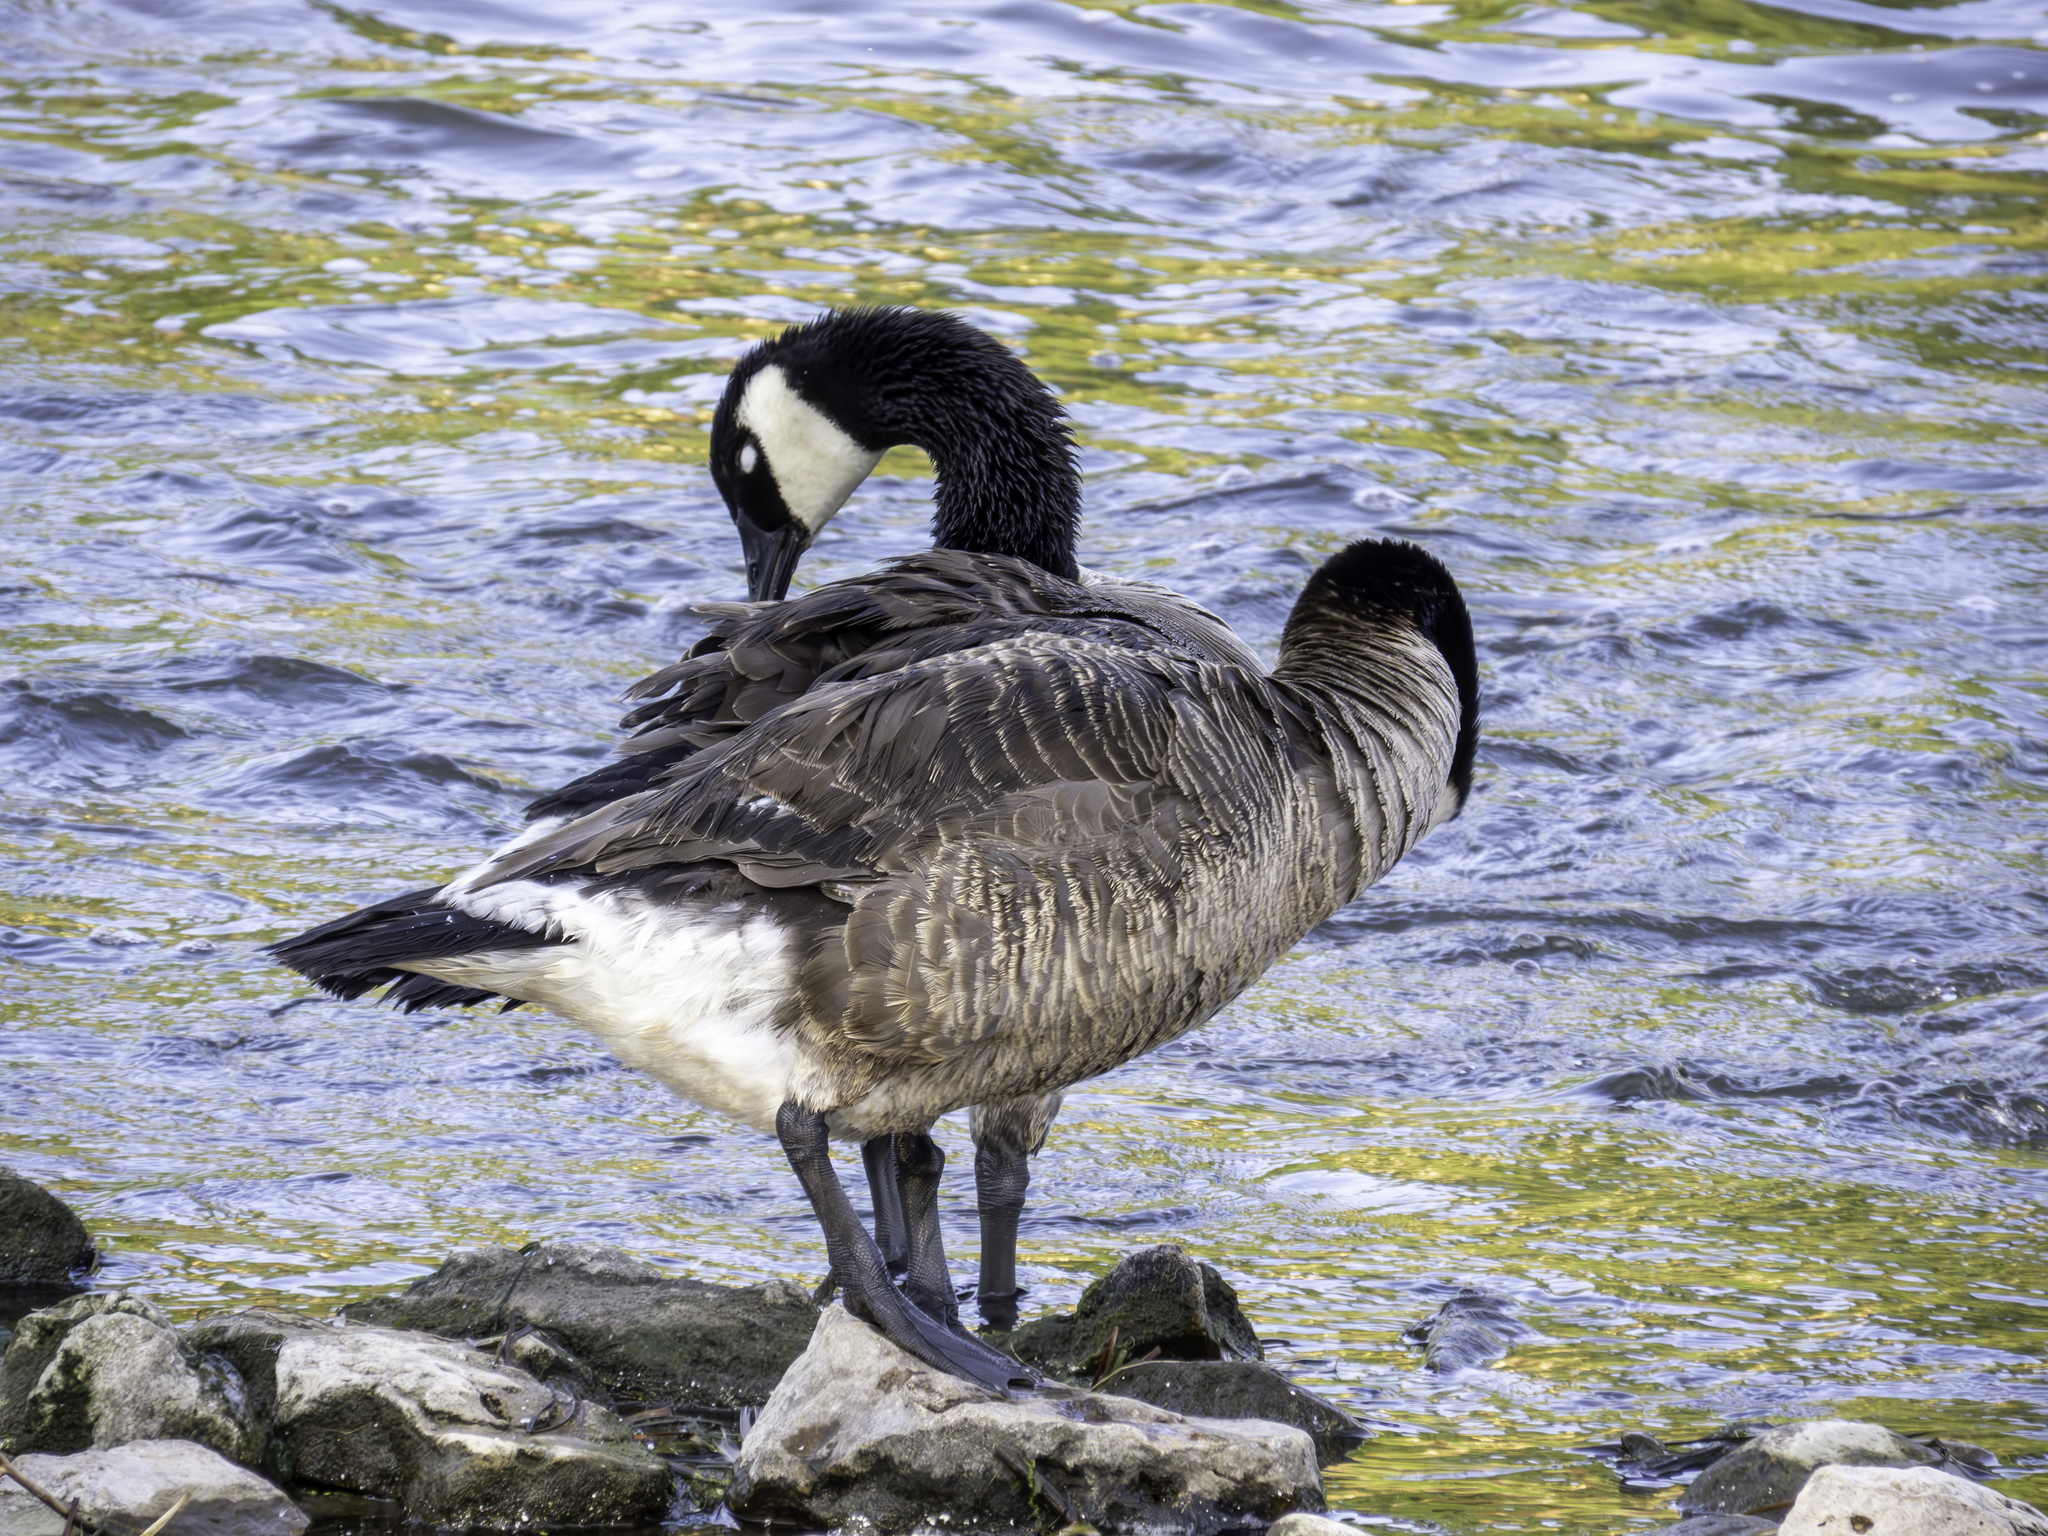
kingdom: Animalia
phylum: Chordata
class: Aves
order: Anseriformes
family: Anatidae
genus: Branta
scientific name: Branta canadensis
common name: Canada goose
